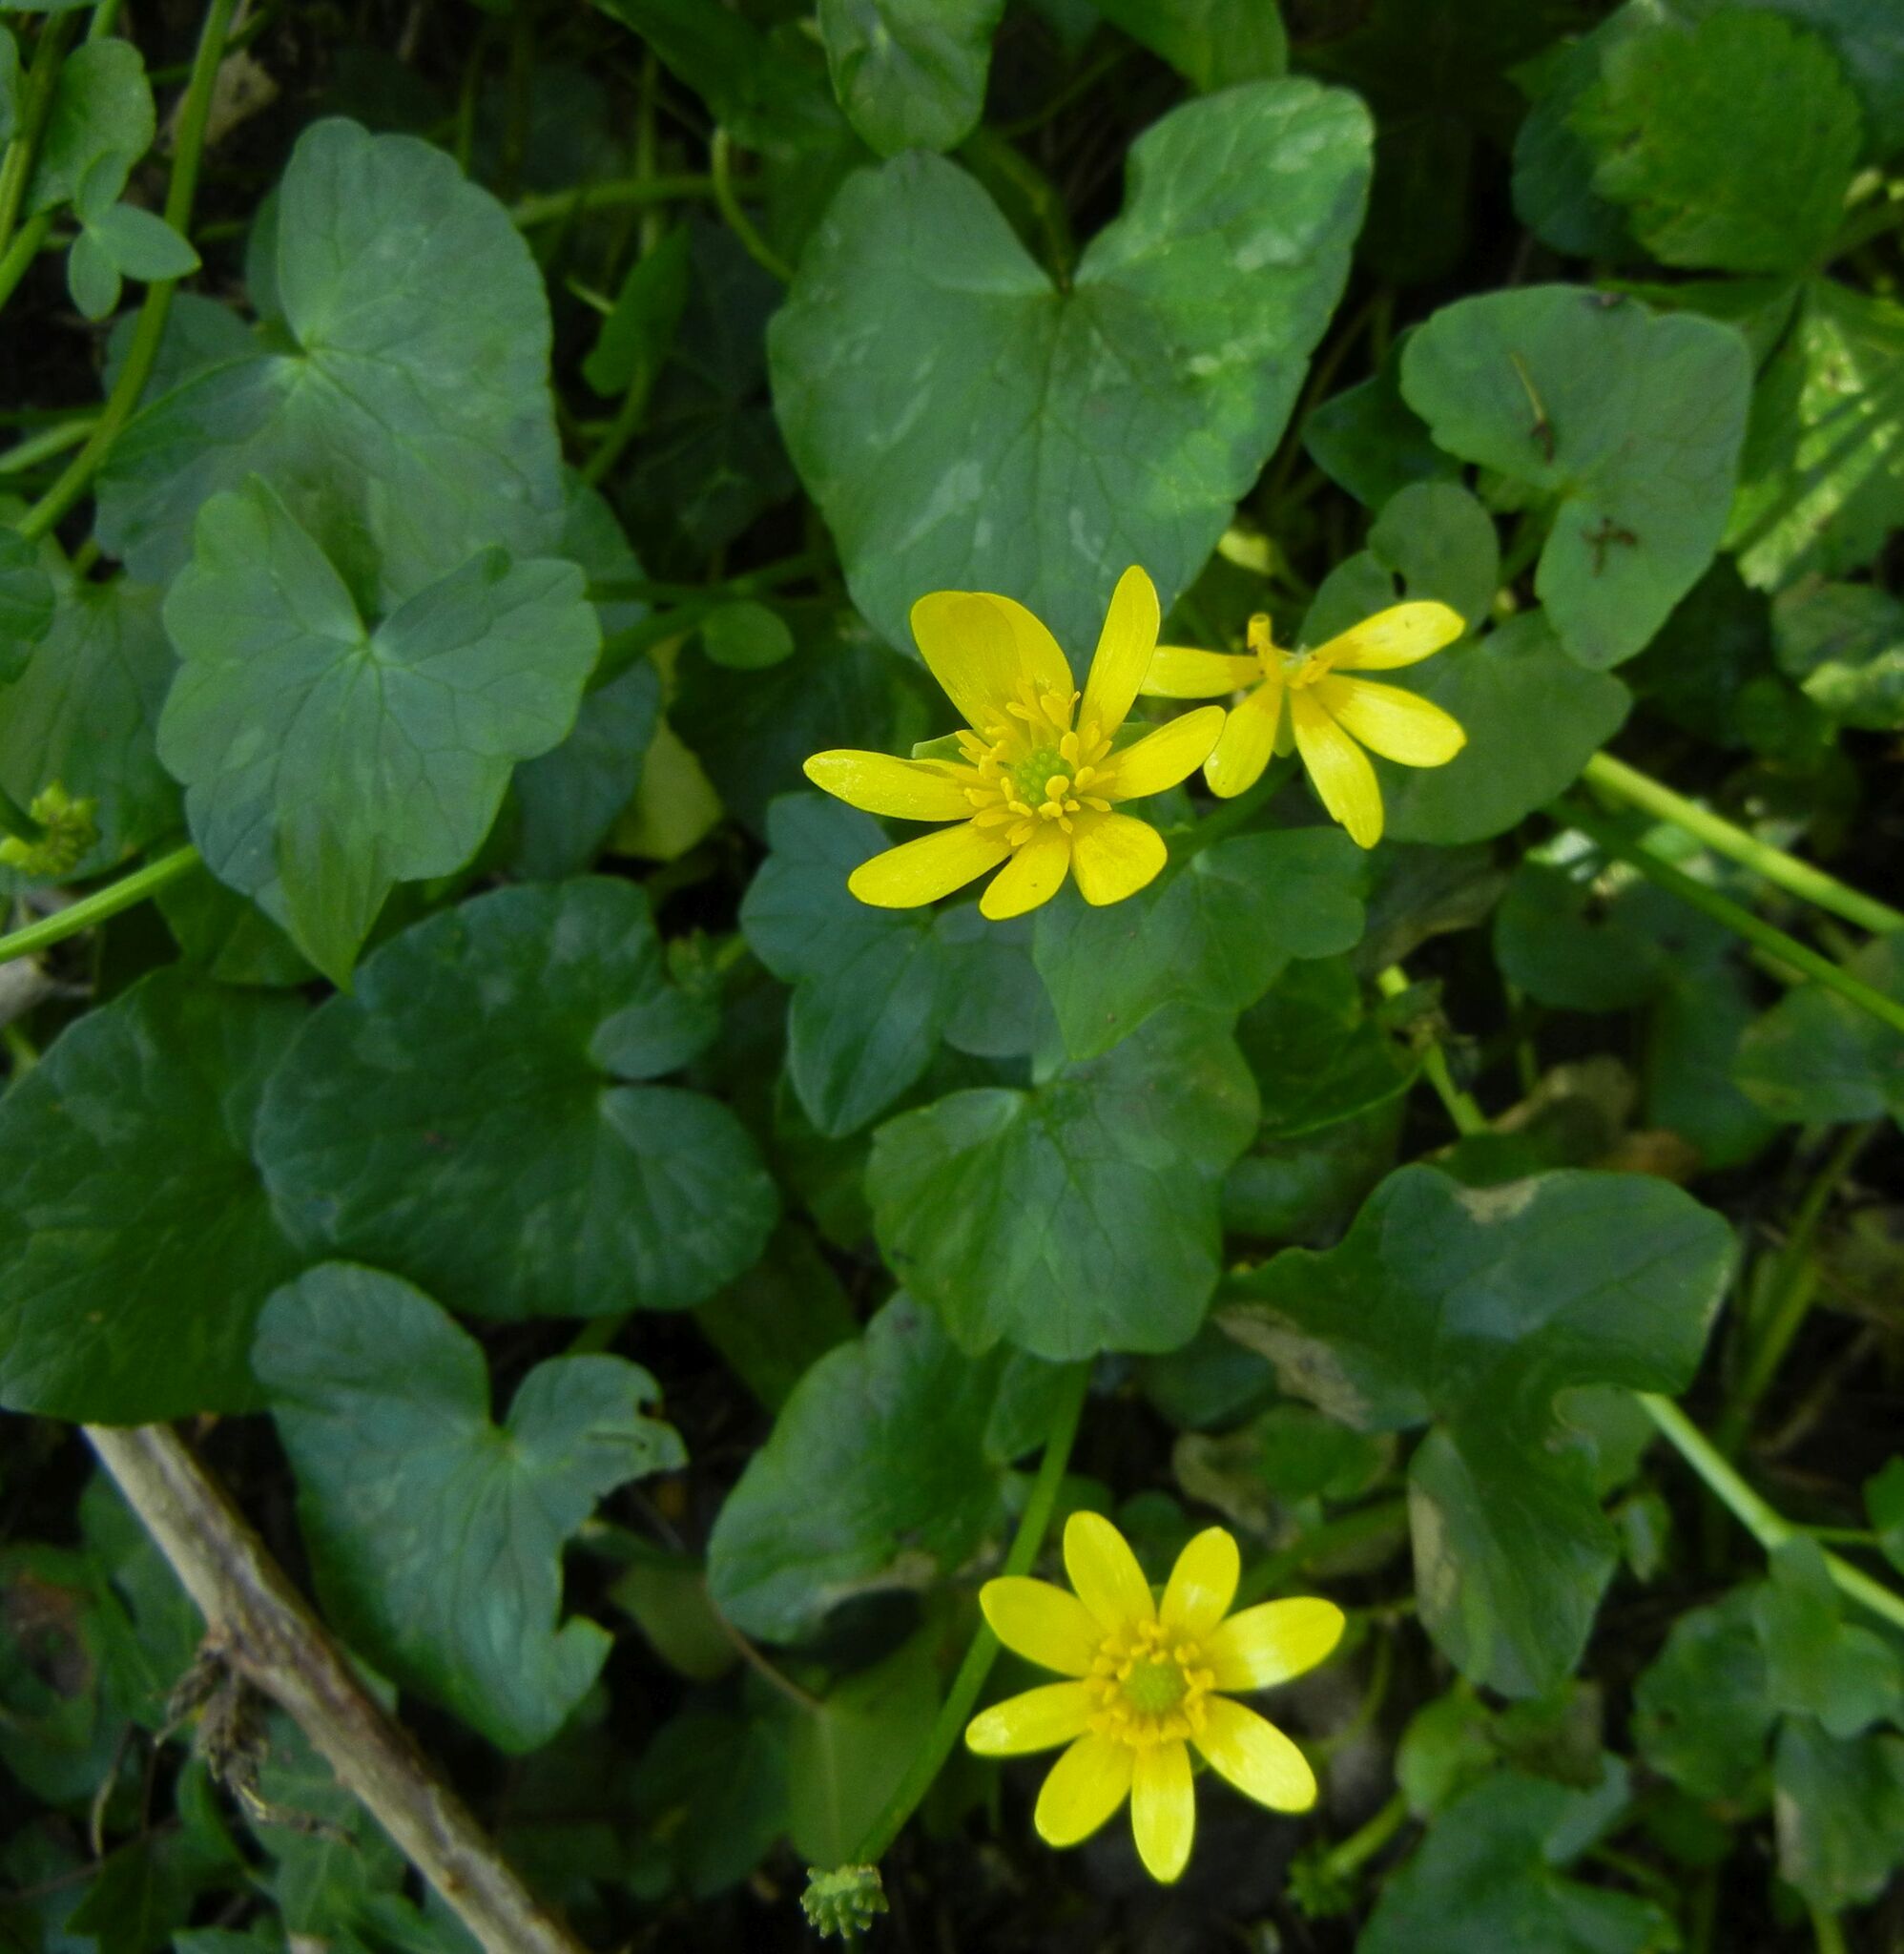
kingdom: Plantae
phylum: Tracheophyta
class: Magnoliopsida
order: Ranunculales
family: Ranunculaceae
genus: Ficaria
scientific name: Ficaria verna
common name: Lesser celandine
